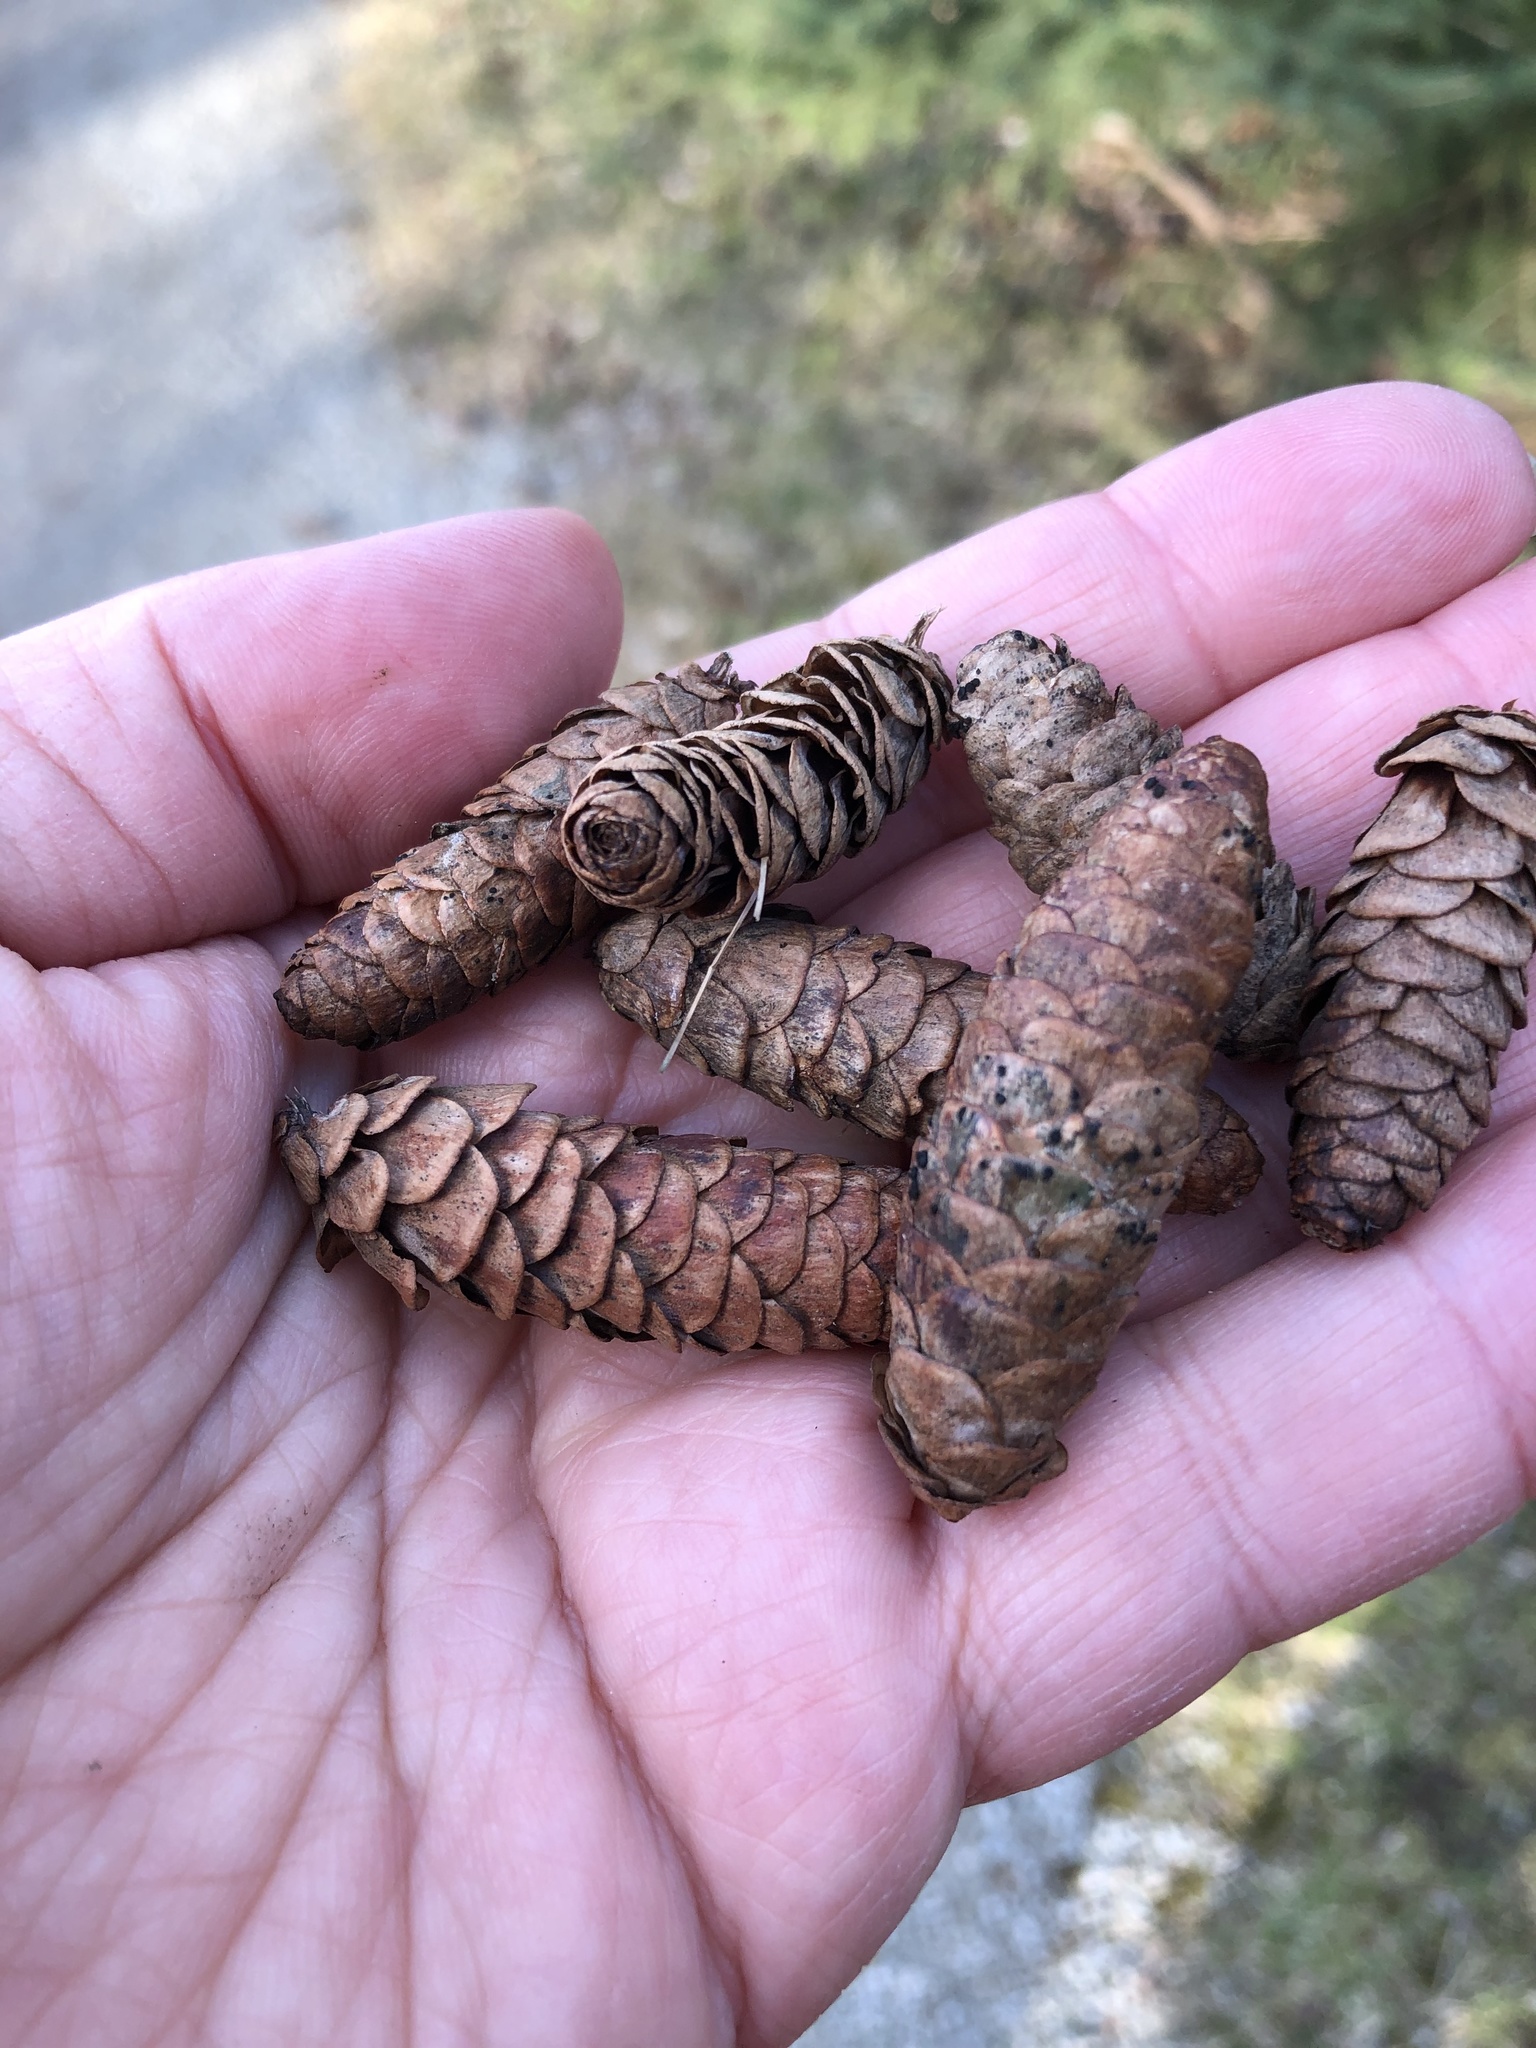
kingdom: Plantae
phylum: Tracheophyta
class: Pinopsida
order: Pinales
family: Pinaceae
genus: Picea
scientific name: Picea glauca
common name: White spruce
